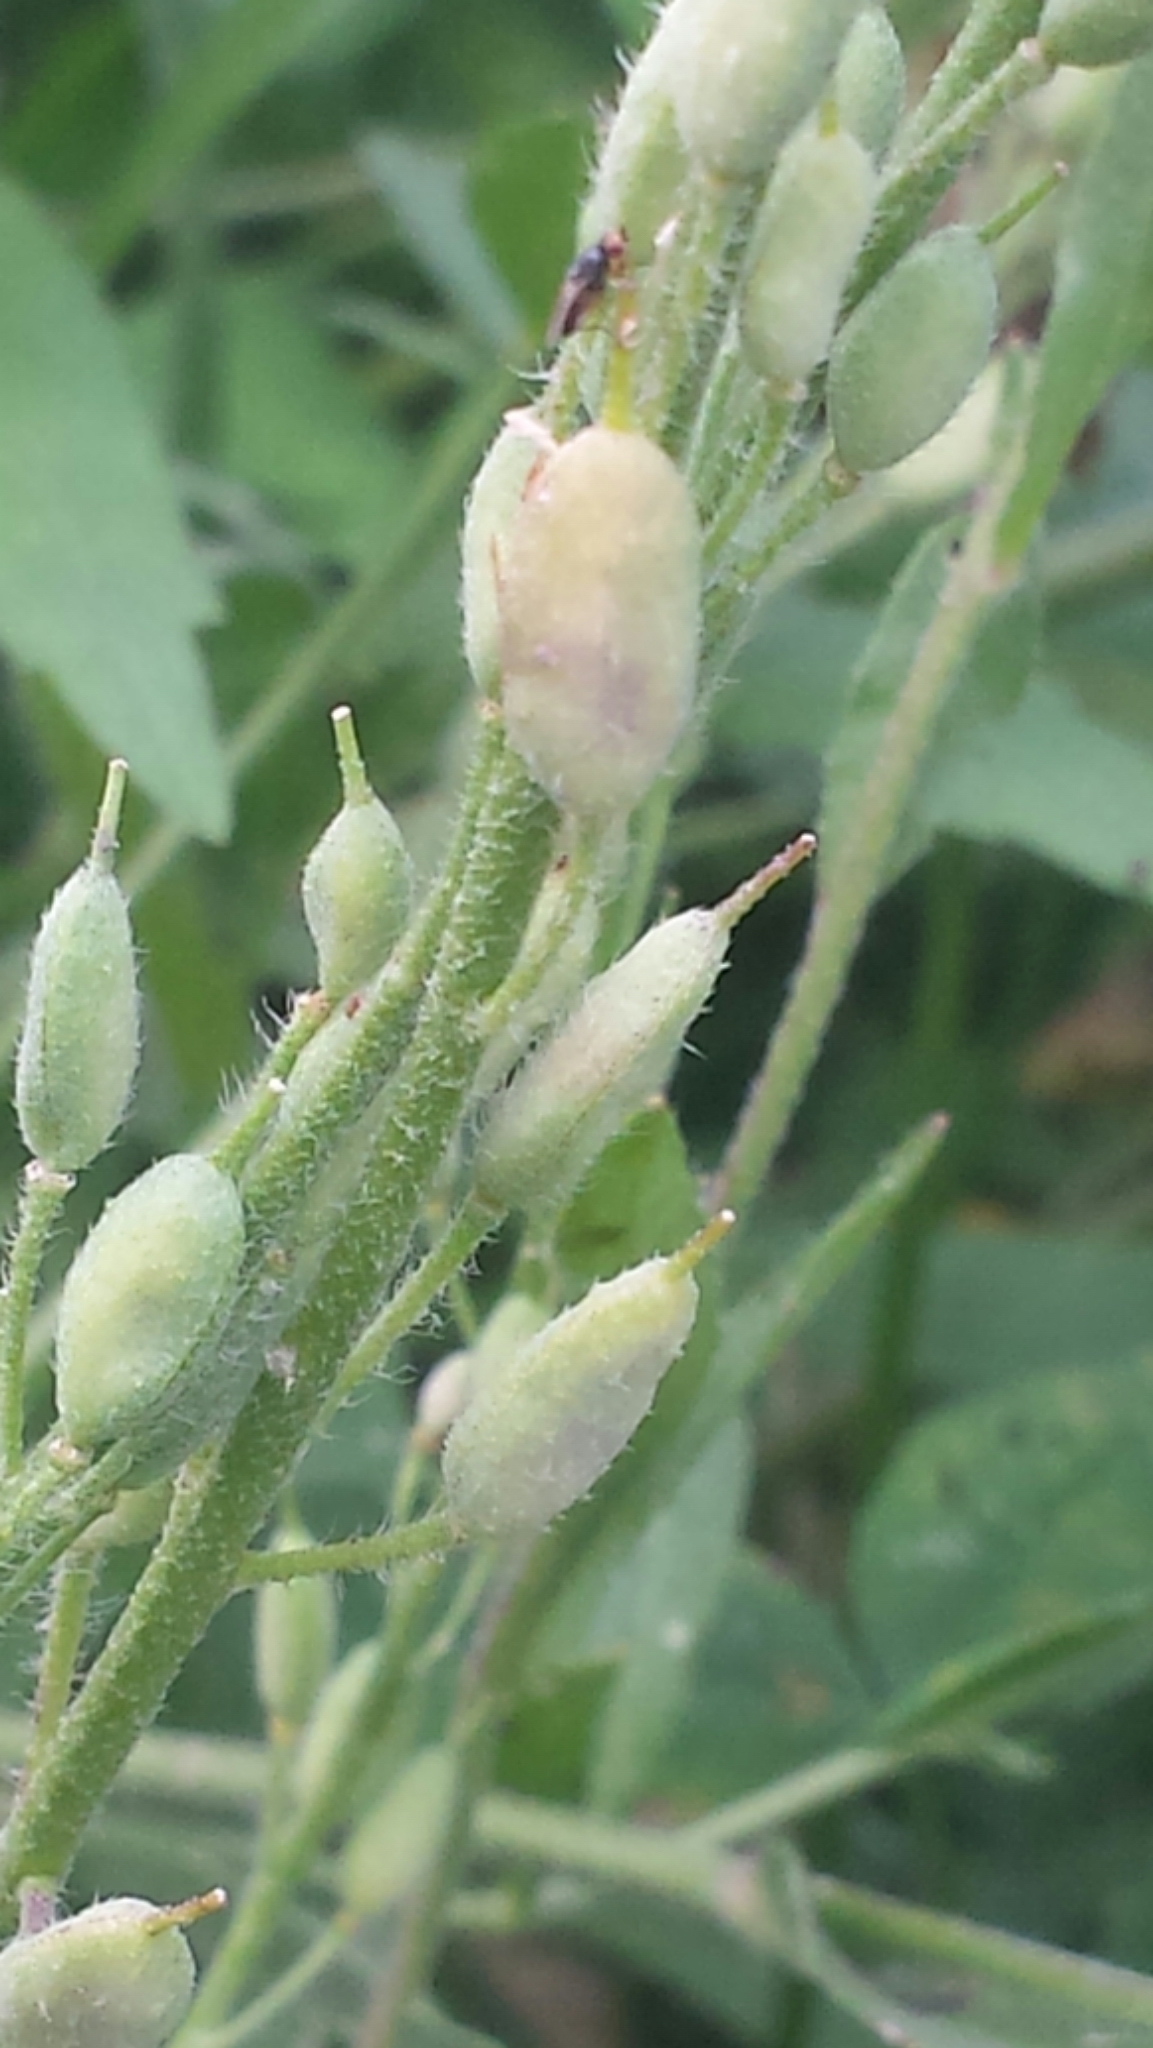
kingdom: Plantae
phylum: Tracheophyta
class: Magnoliopsida
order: Brassicales
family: Brassicaceae
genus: Berteroa
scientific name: Berteroa incana
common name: Hoary alison
